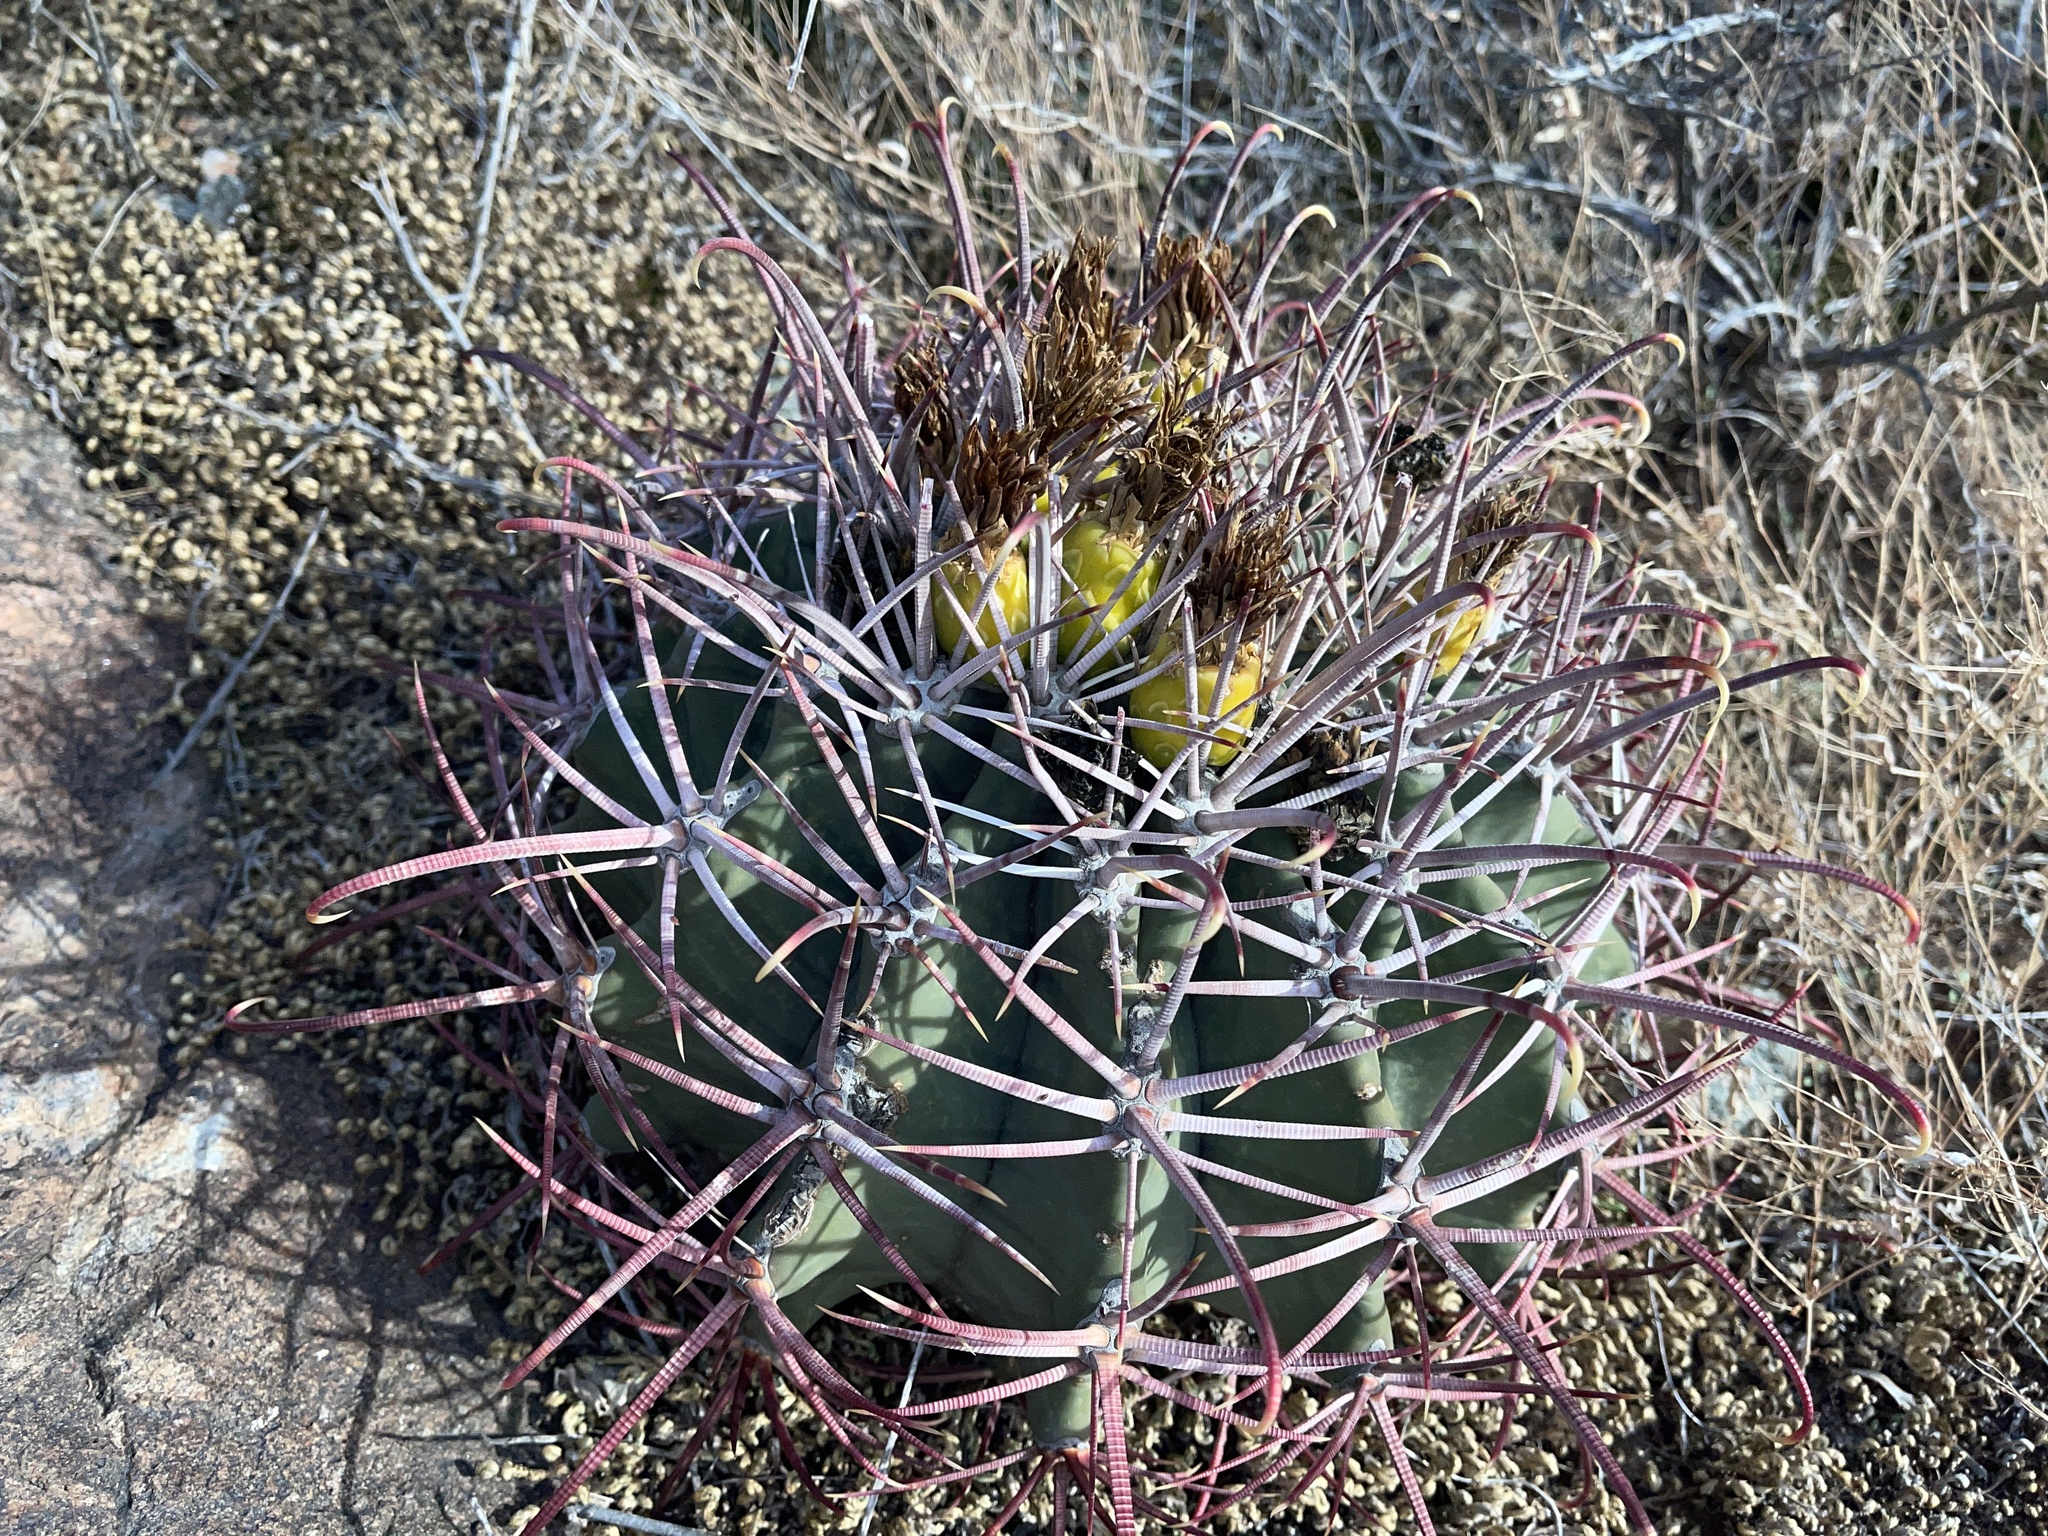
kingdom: Plantae
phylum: Tracheophyta
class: Magnoliopsida
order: Caryophyllales
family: Cactaceae
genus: Ferocactus
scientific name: Ferocactus emoryi
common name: Emory's barrel cactus
